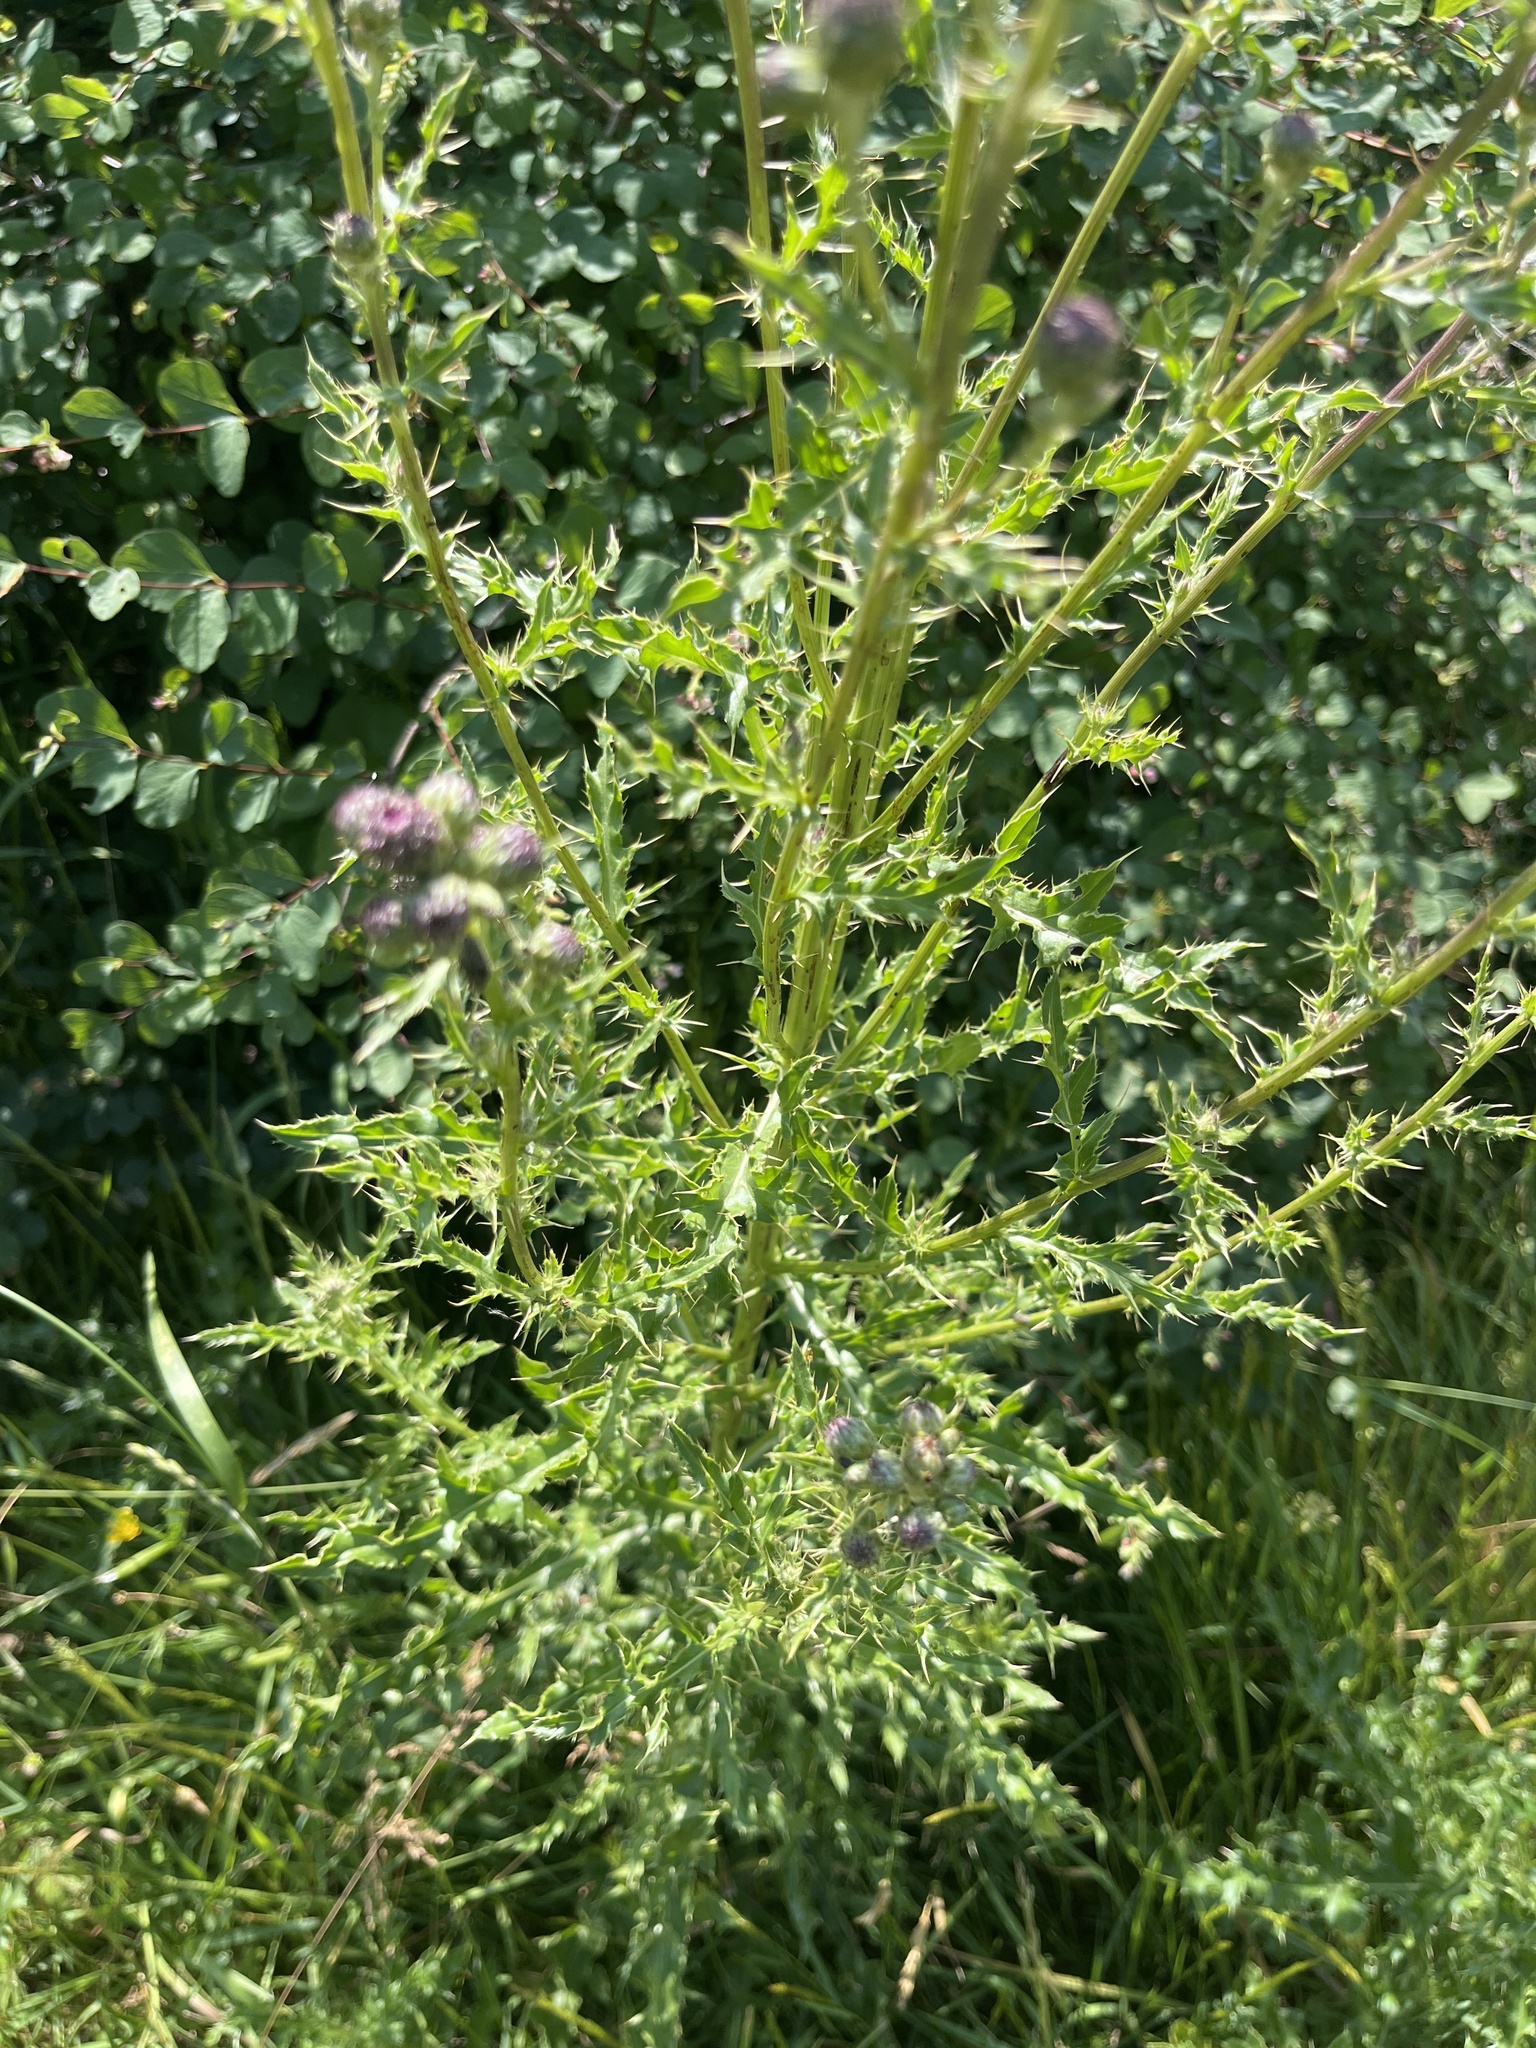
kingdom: Plantae
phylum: Tracheophyta
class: Magnoliopsida
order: Asterales
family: Asteraceae
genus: Cirsium
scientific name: Cirsium arvense
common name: Creeping thistle
